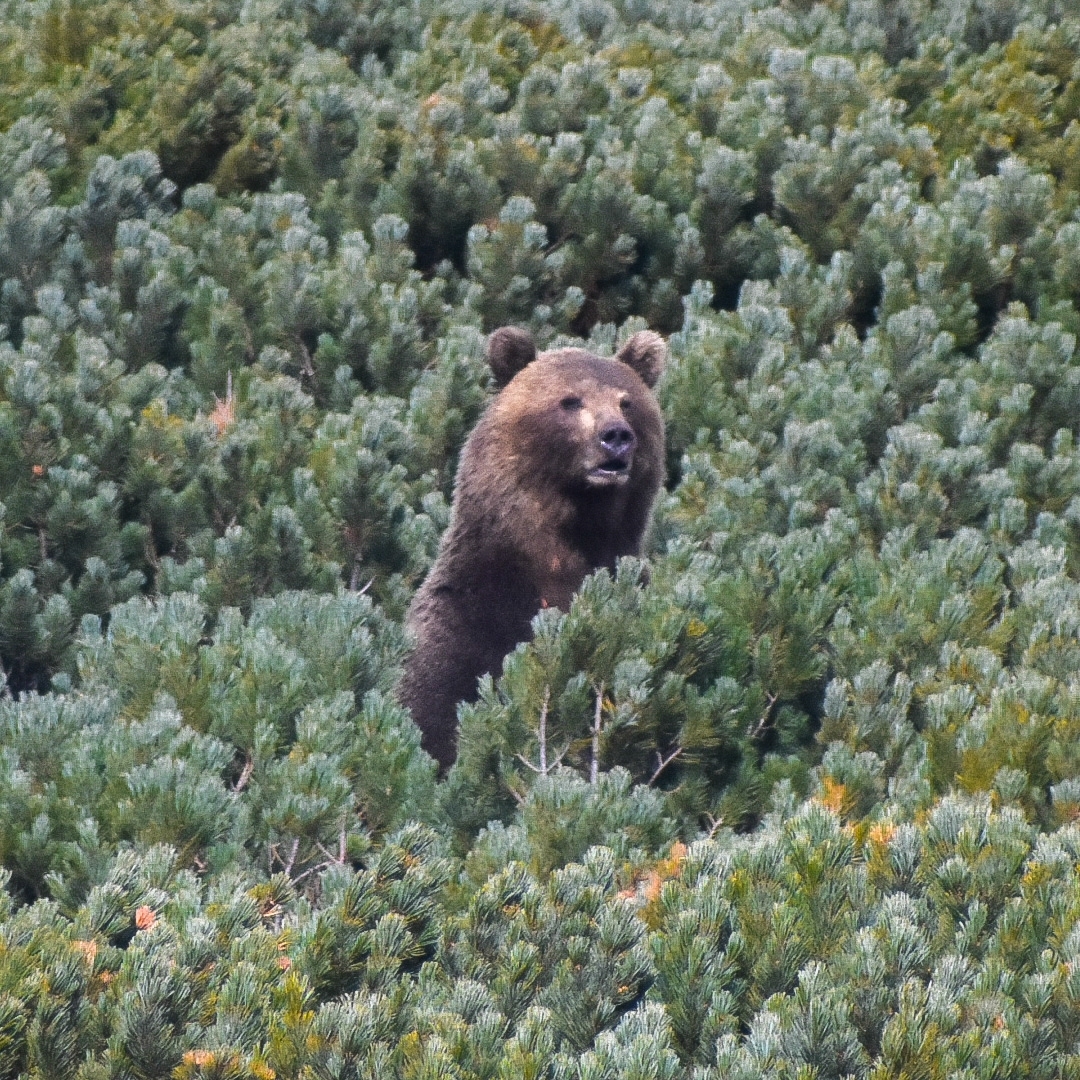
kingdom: Animalia
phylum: Chordata
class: Mammalia
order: Carnivora
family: Ursidae
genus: Ursus
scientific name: Ursus arctos
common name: Brown bear
